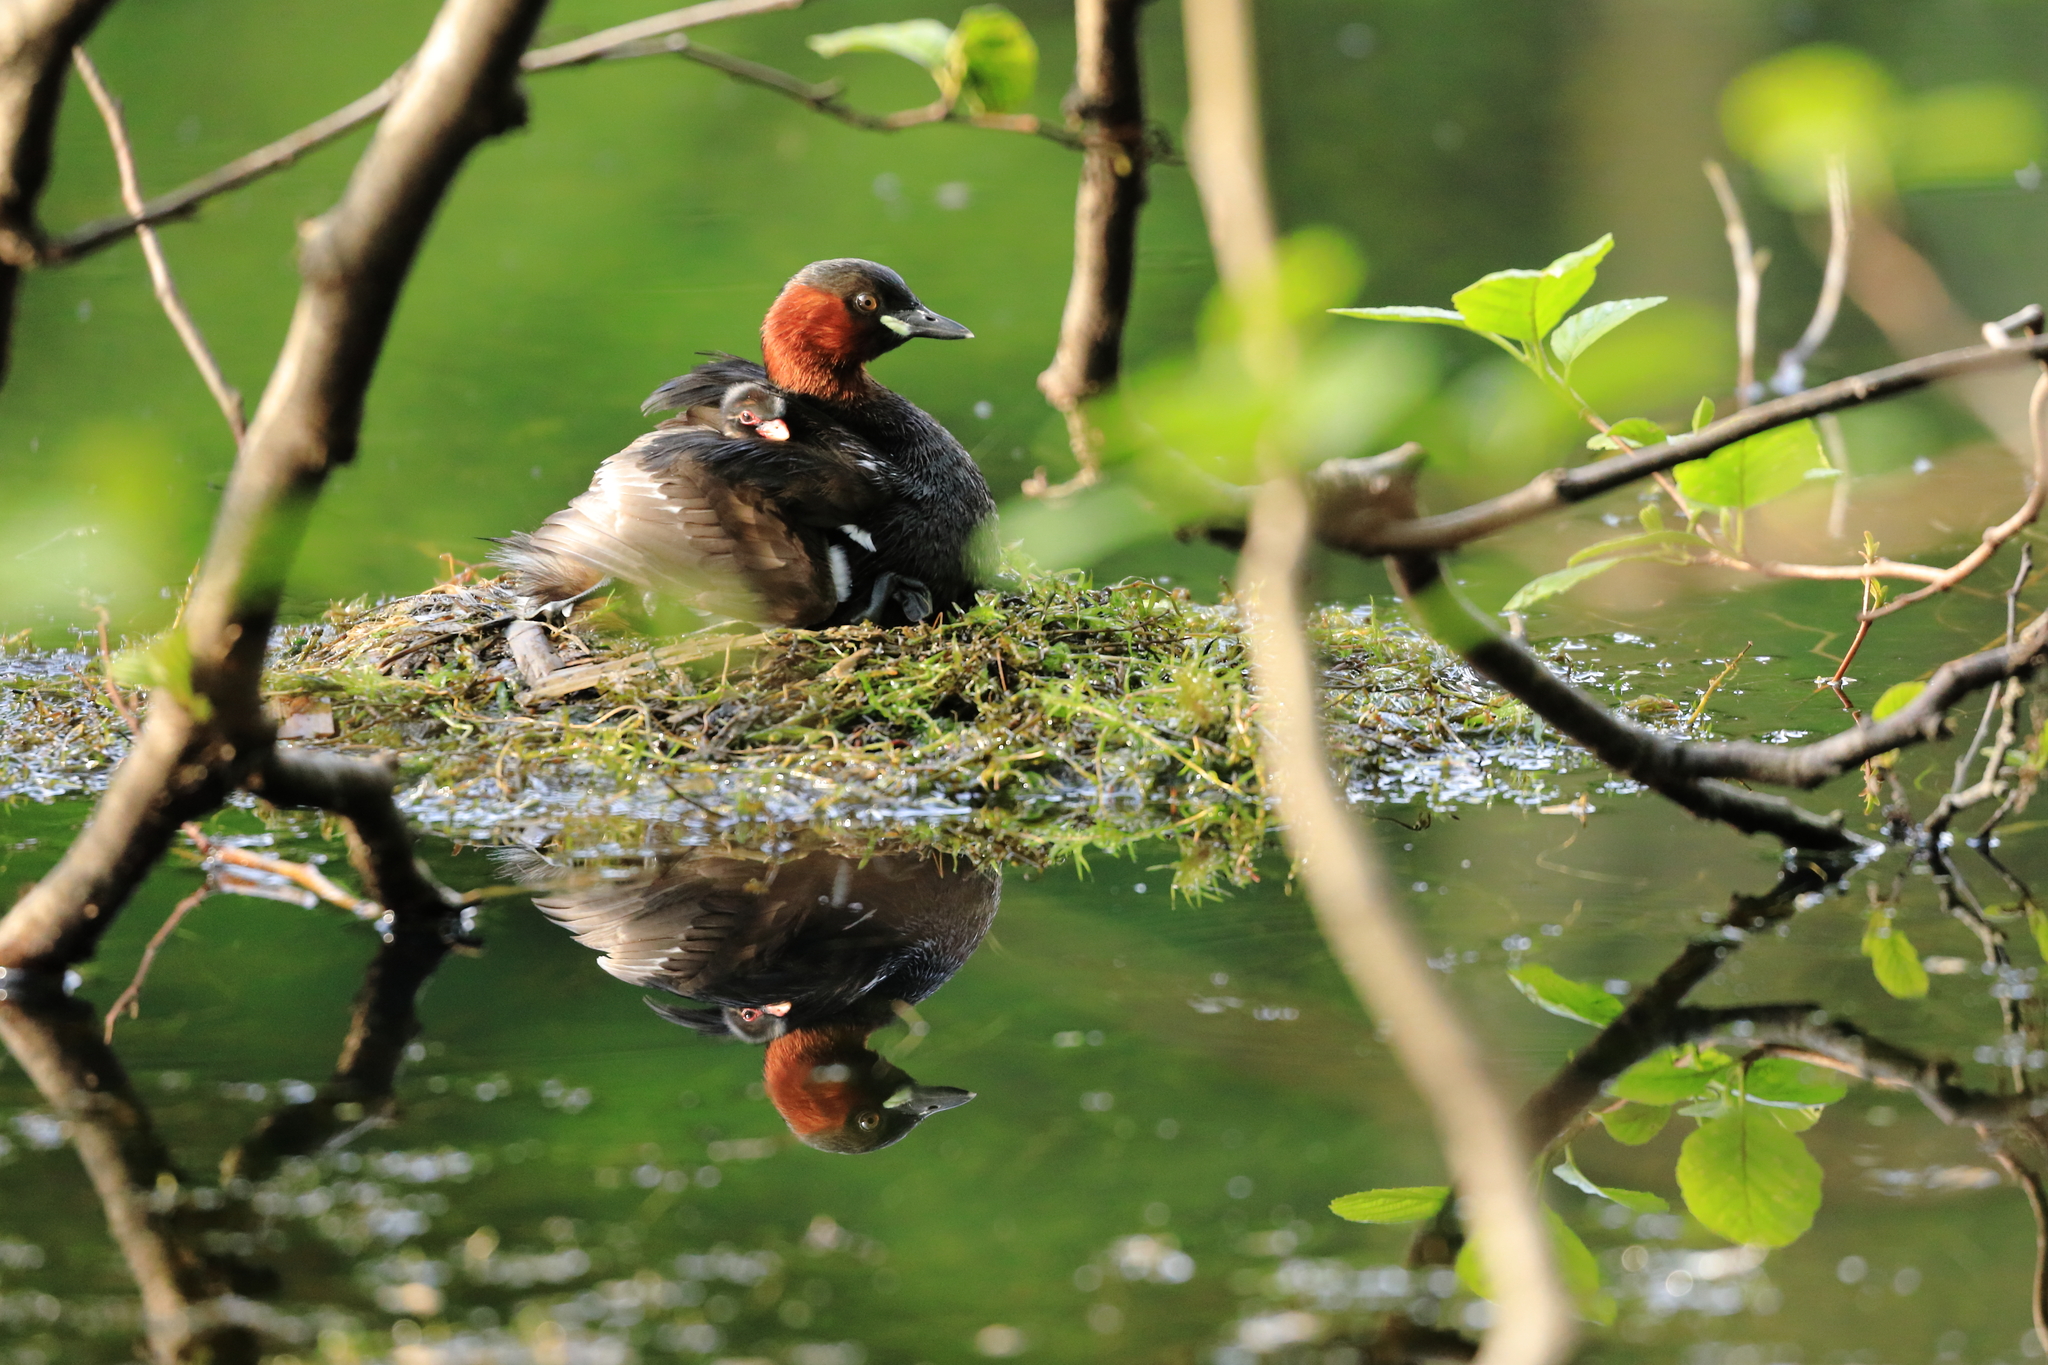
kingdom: Animalia
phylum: Chordata
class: Aves
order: Podicipediformes
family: Podicipedidae
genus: Tachybaptus
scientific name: Tachybaptus ruficollis
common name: Little grebe
